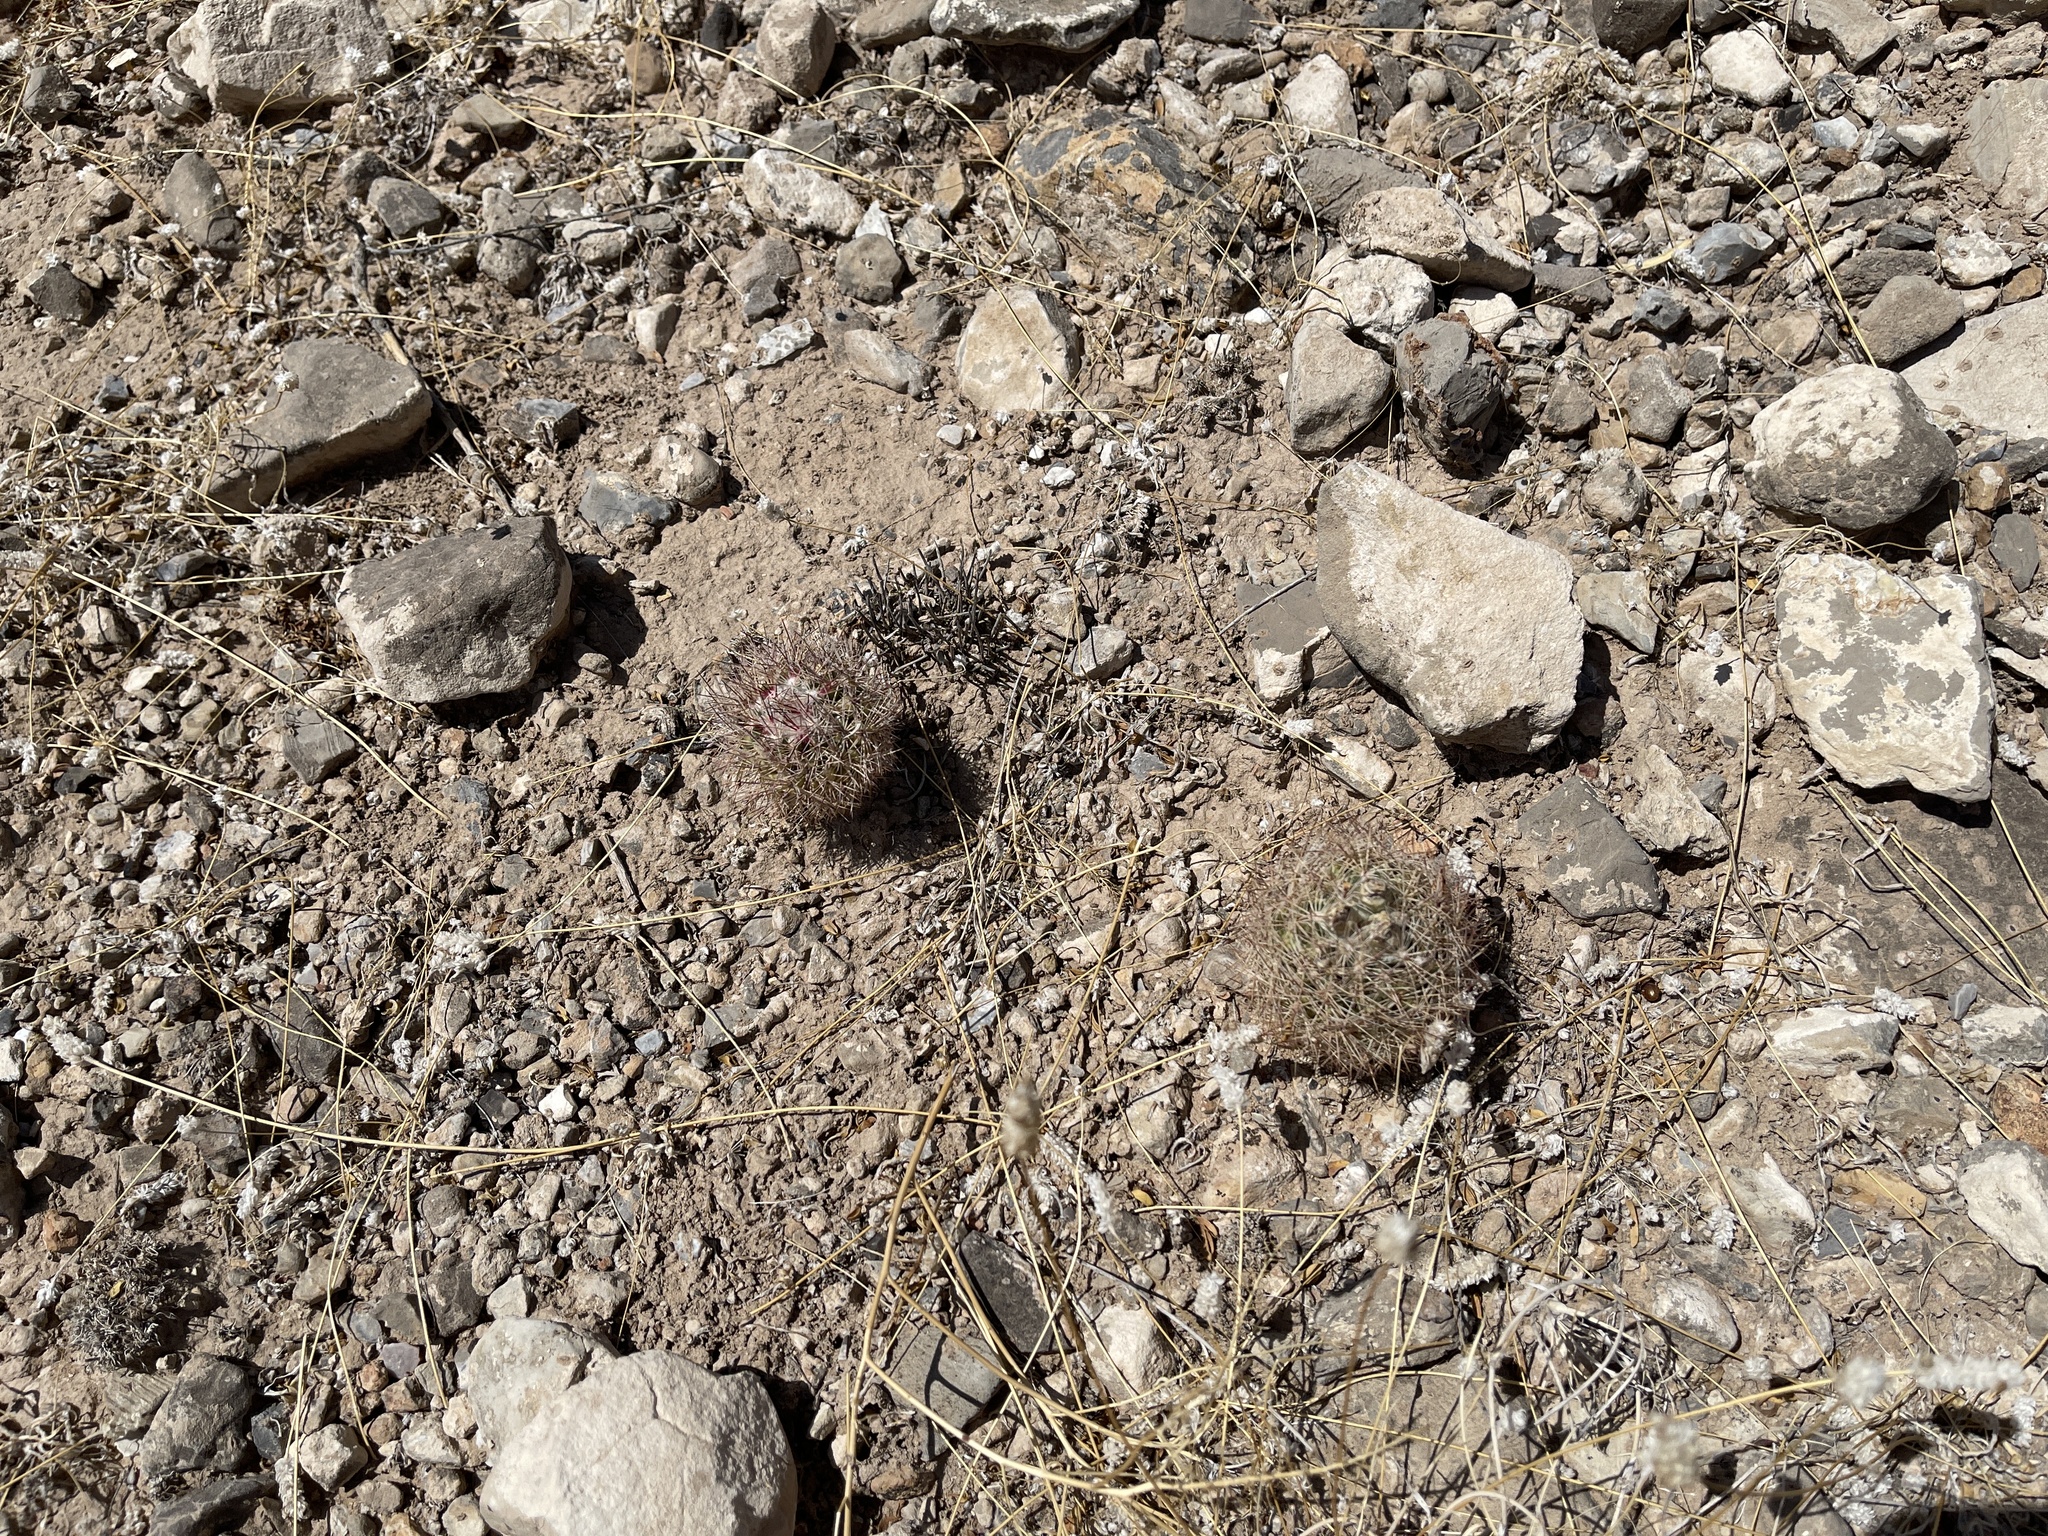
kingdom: Plantae
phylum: Tracheophyta
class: Magnoliopsida
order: Caryophyllales
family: Cactaceae
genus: Sclerocactus
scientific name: Sclerocactus intertextus
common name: White fish-hook cactus
